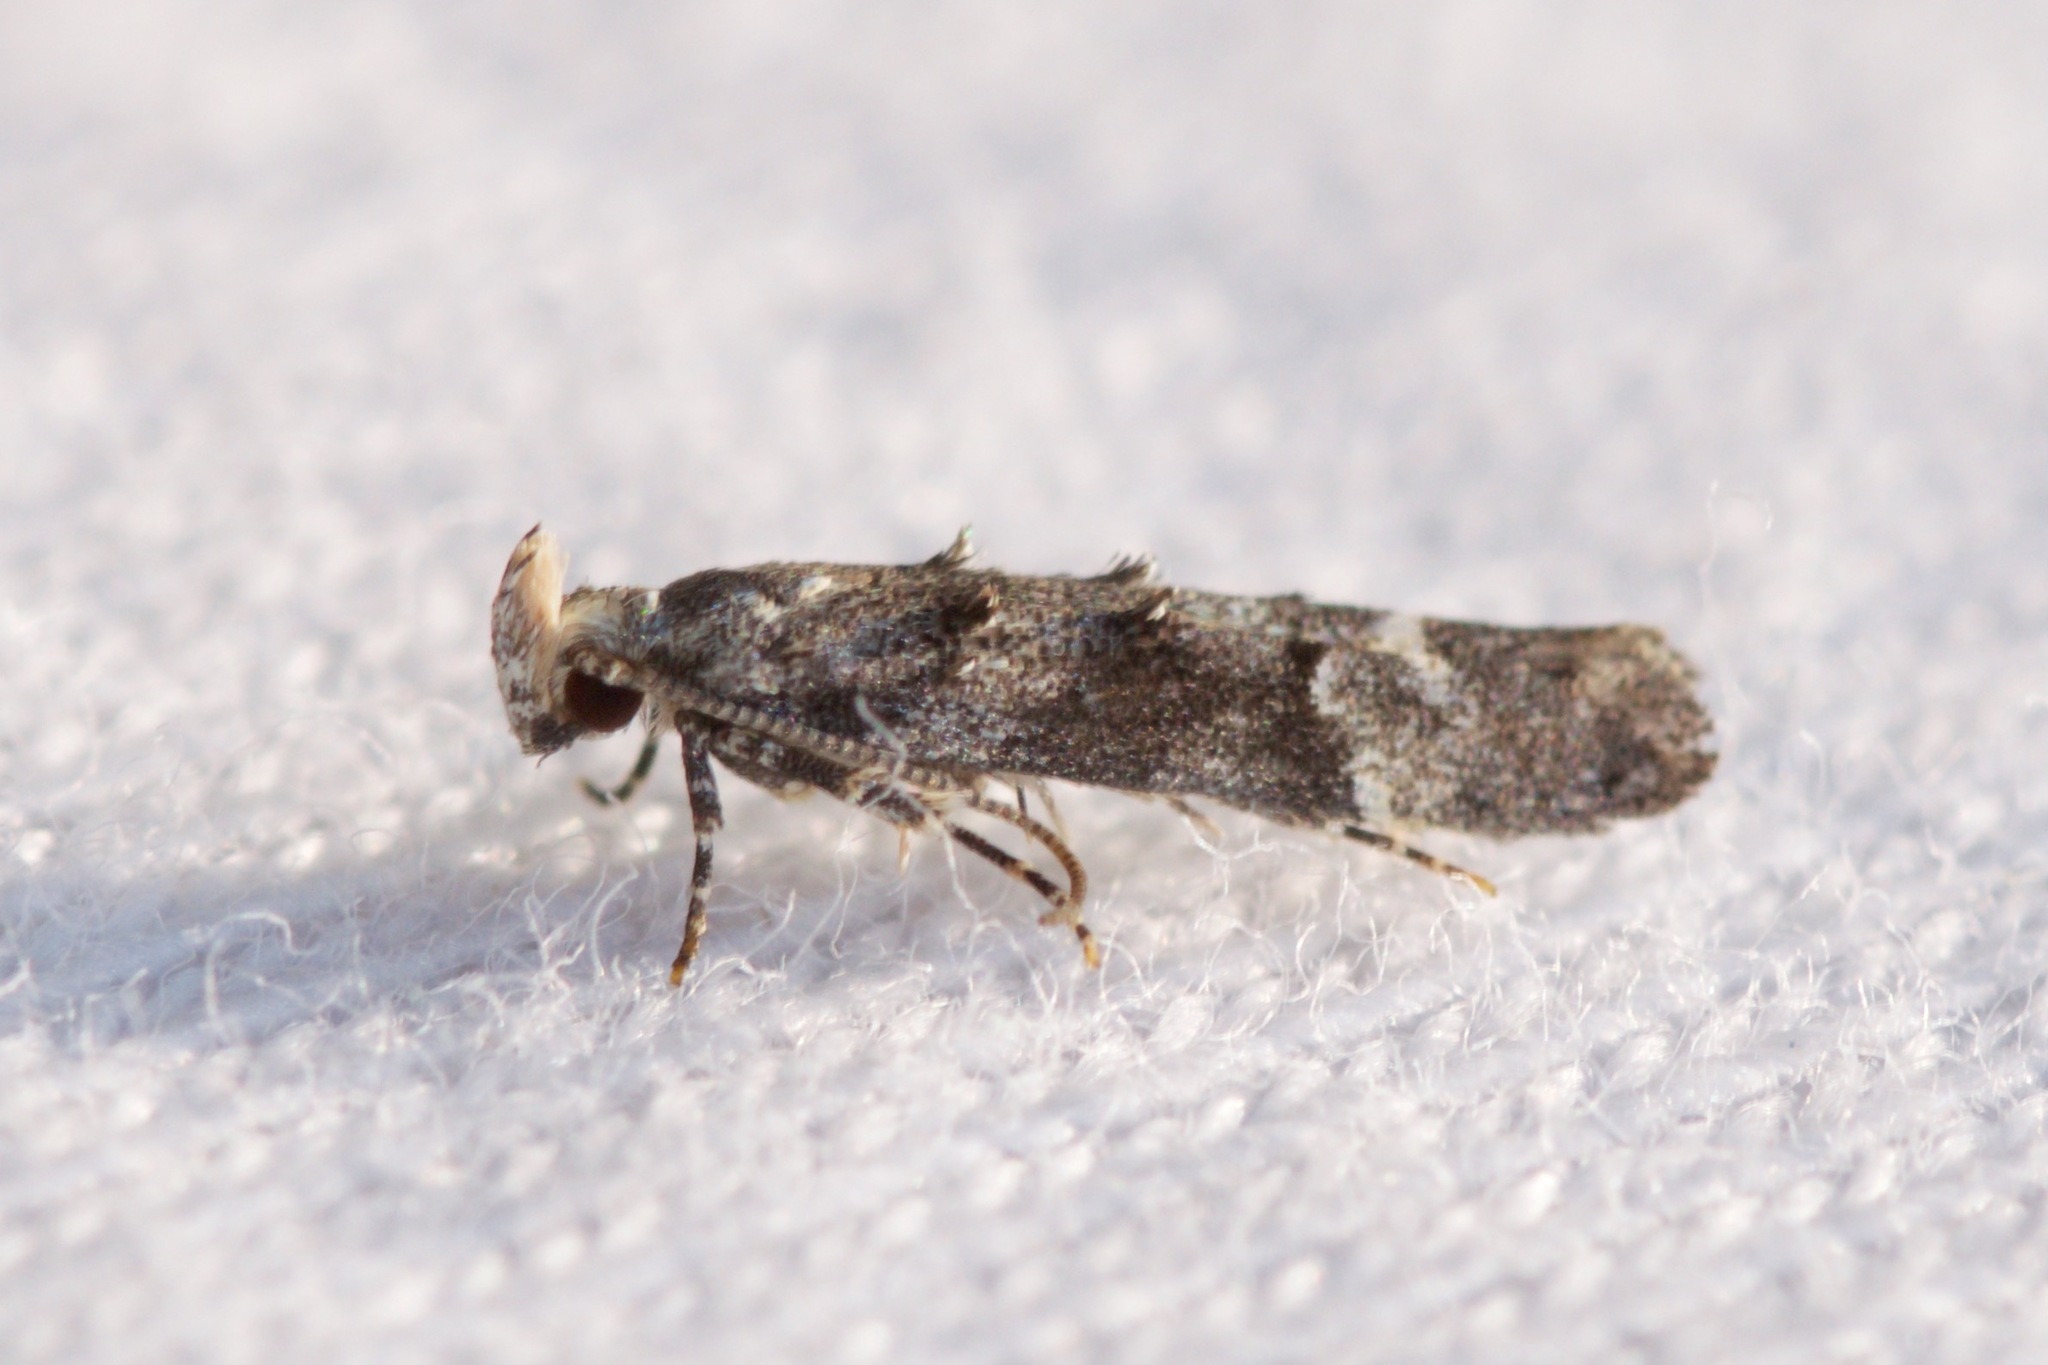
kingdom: Animalia
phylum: Arthropoda
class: Insecta
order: Lepidoptera
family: Gelechiidae
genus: Coleotechnites
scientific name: Coleotechnites atrupictella
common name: Spruce micromoth
